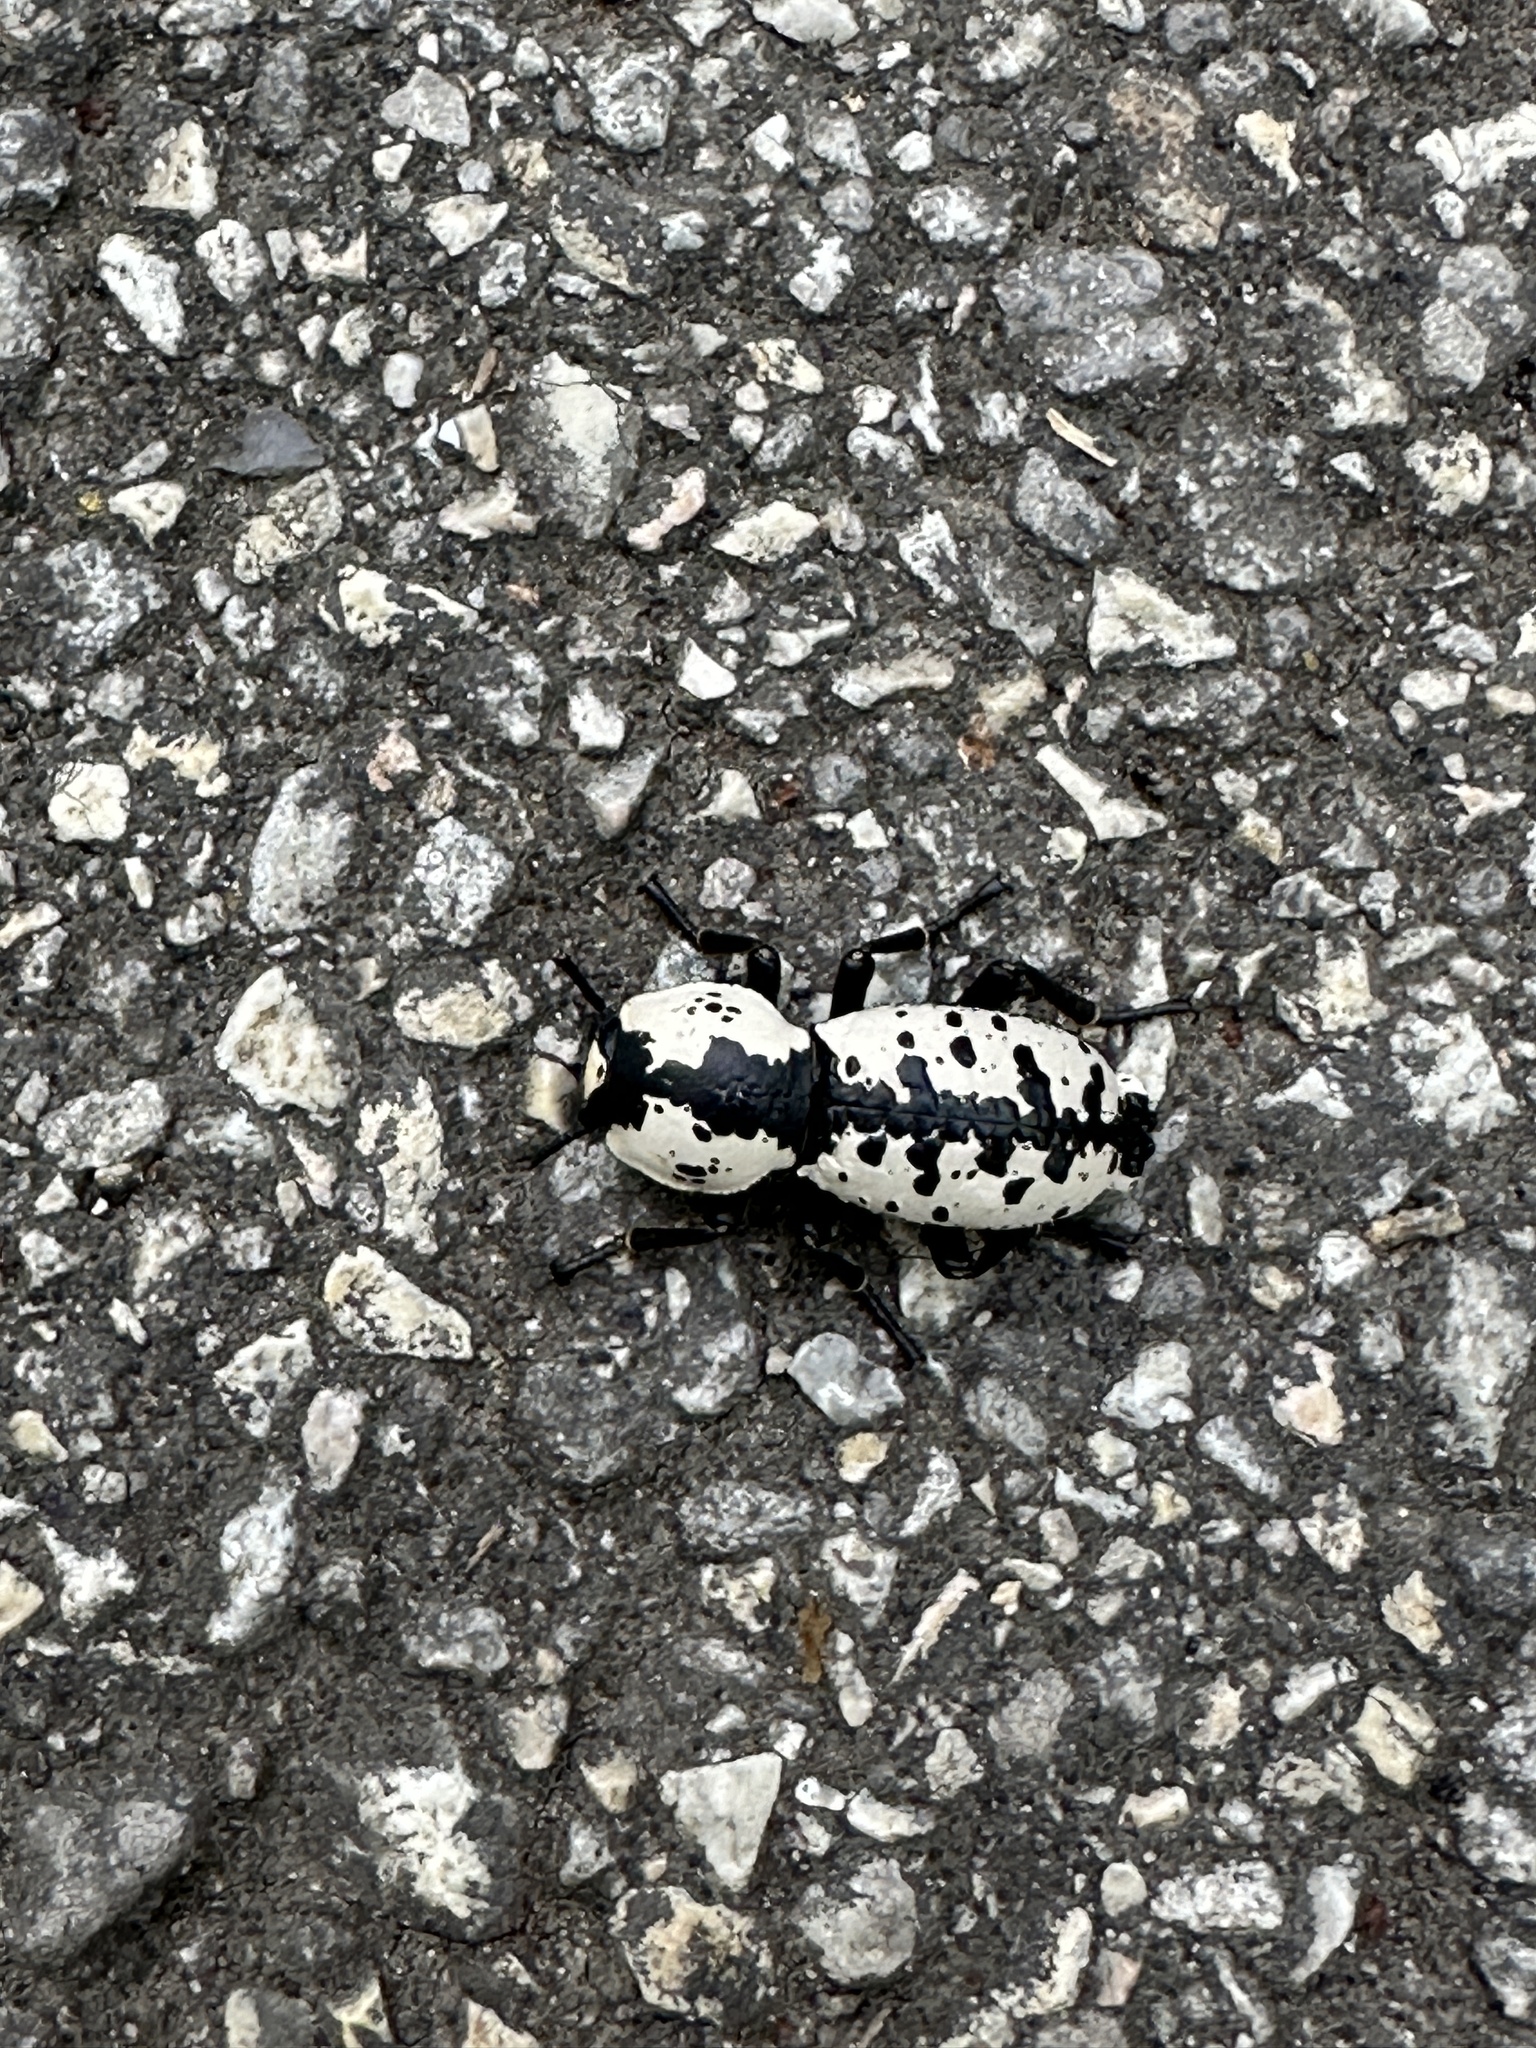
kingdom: Animalia
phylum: Arthropoda
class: Insecta
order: Coleoptera
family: Zopheridae
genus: Zopherus
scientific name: Zopherus nodulosus
